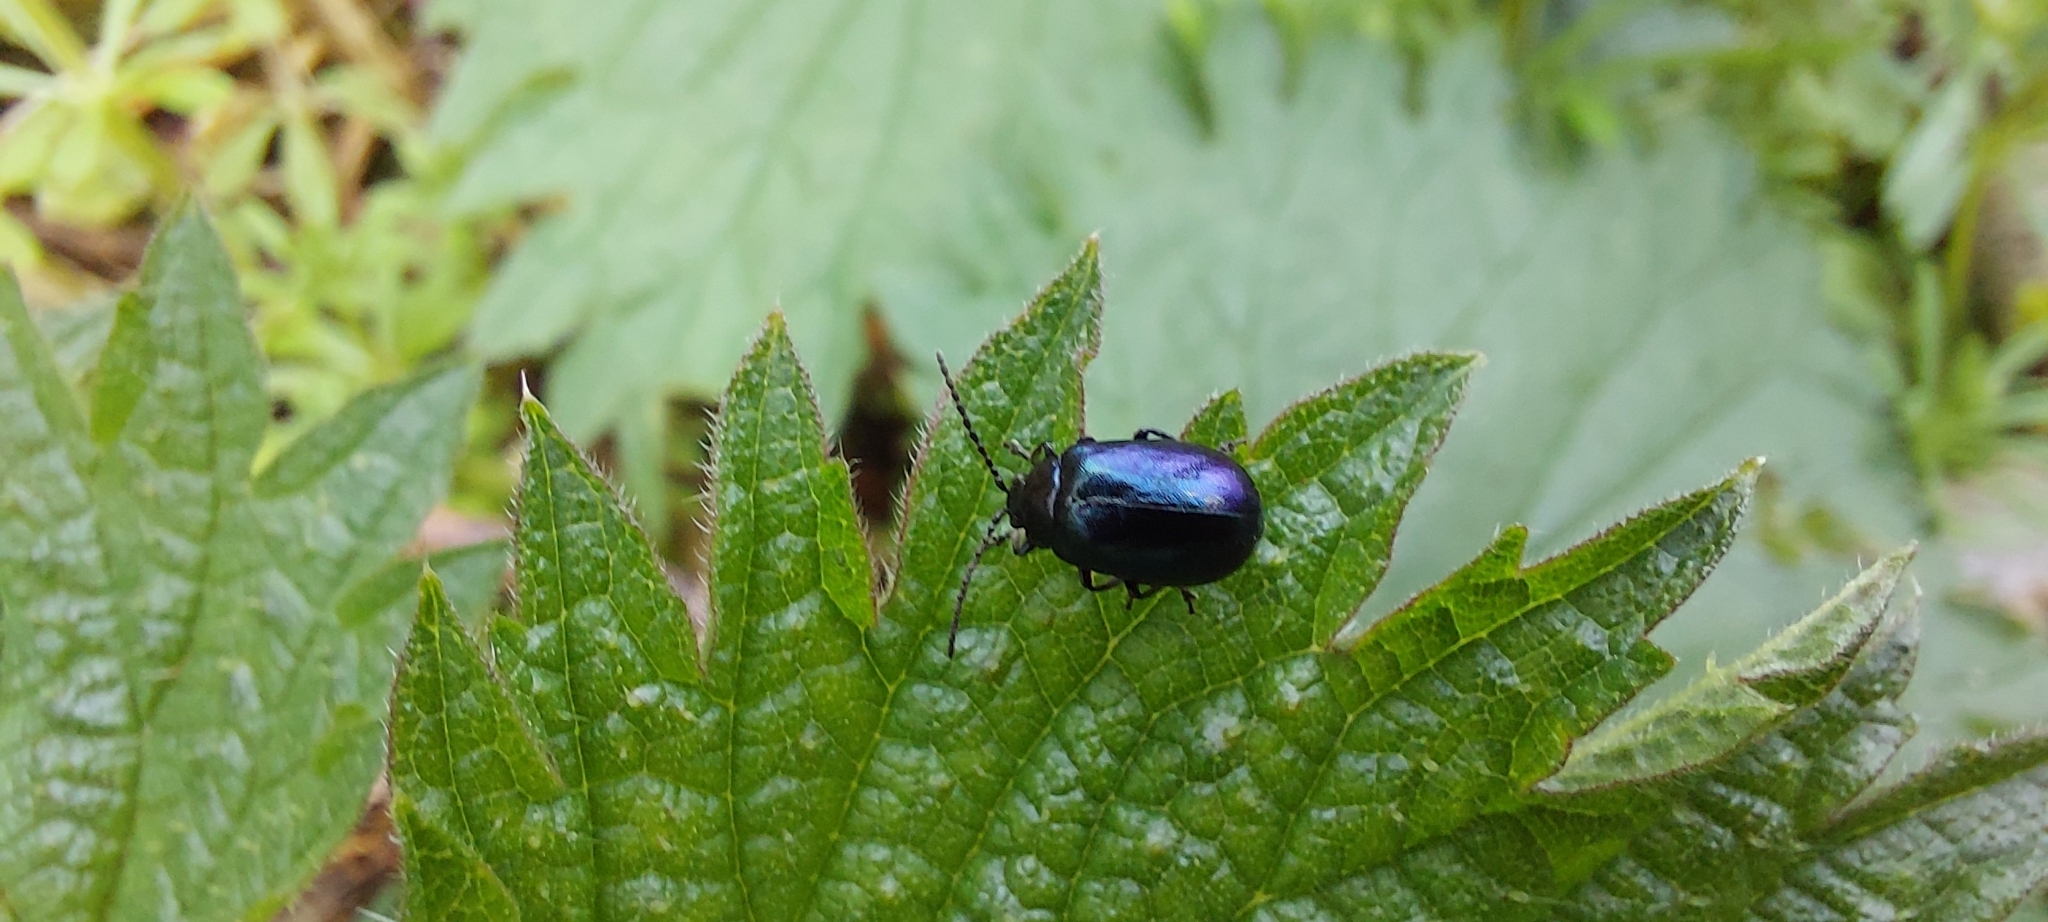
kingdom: Animalia
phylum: Arthropoda
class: Insecta
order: Coleoptera
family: Chrysomelidae
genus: Agelastica
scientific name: Agelastica alni
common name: Alder leaf beetle
